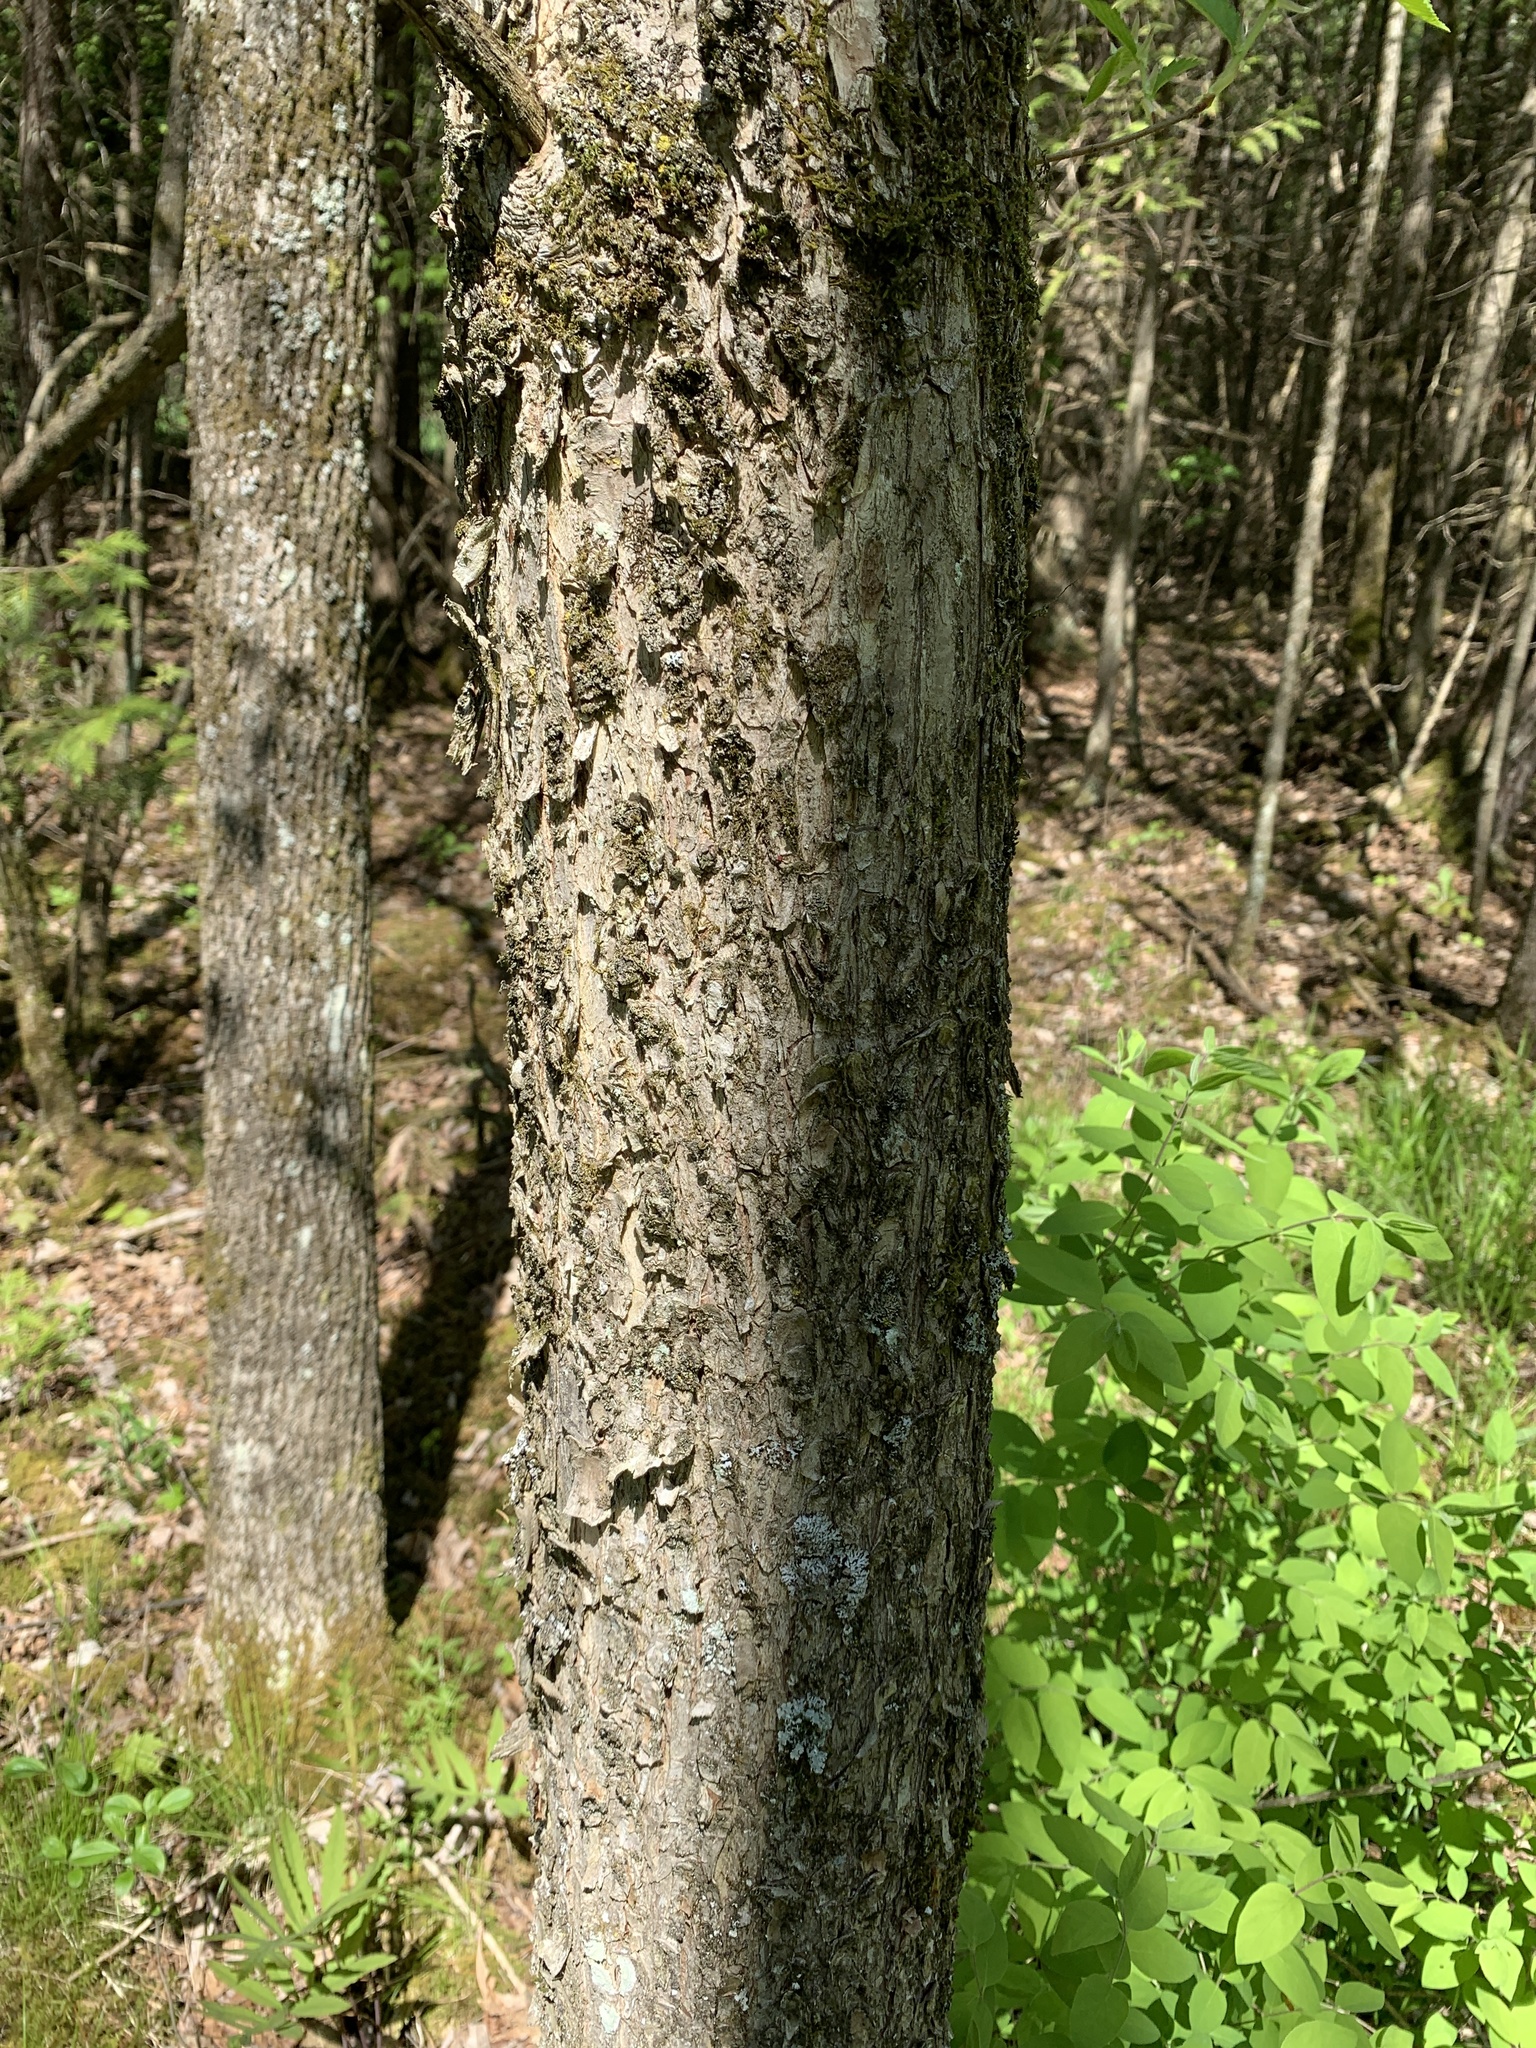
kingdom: Plantae
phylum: Tracheophyta
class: Magnoliopsida
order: Fagales
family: Betulaceae
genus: Ostrya
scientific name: Ostrya virginiana
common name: Ironwood
